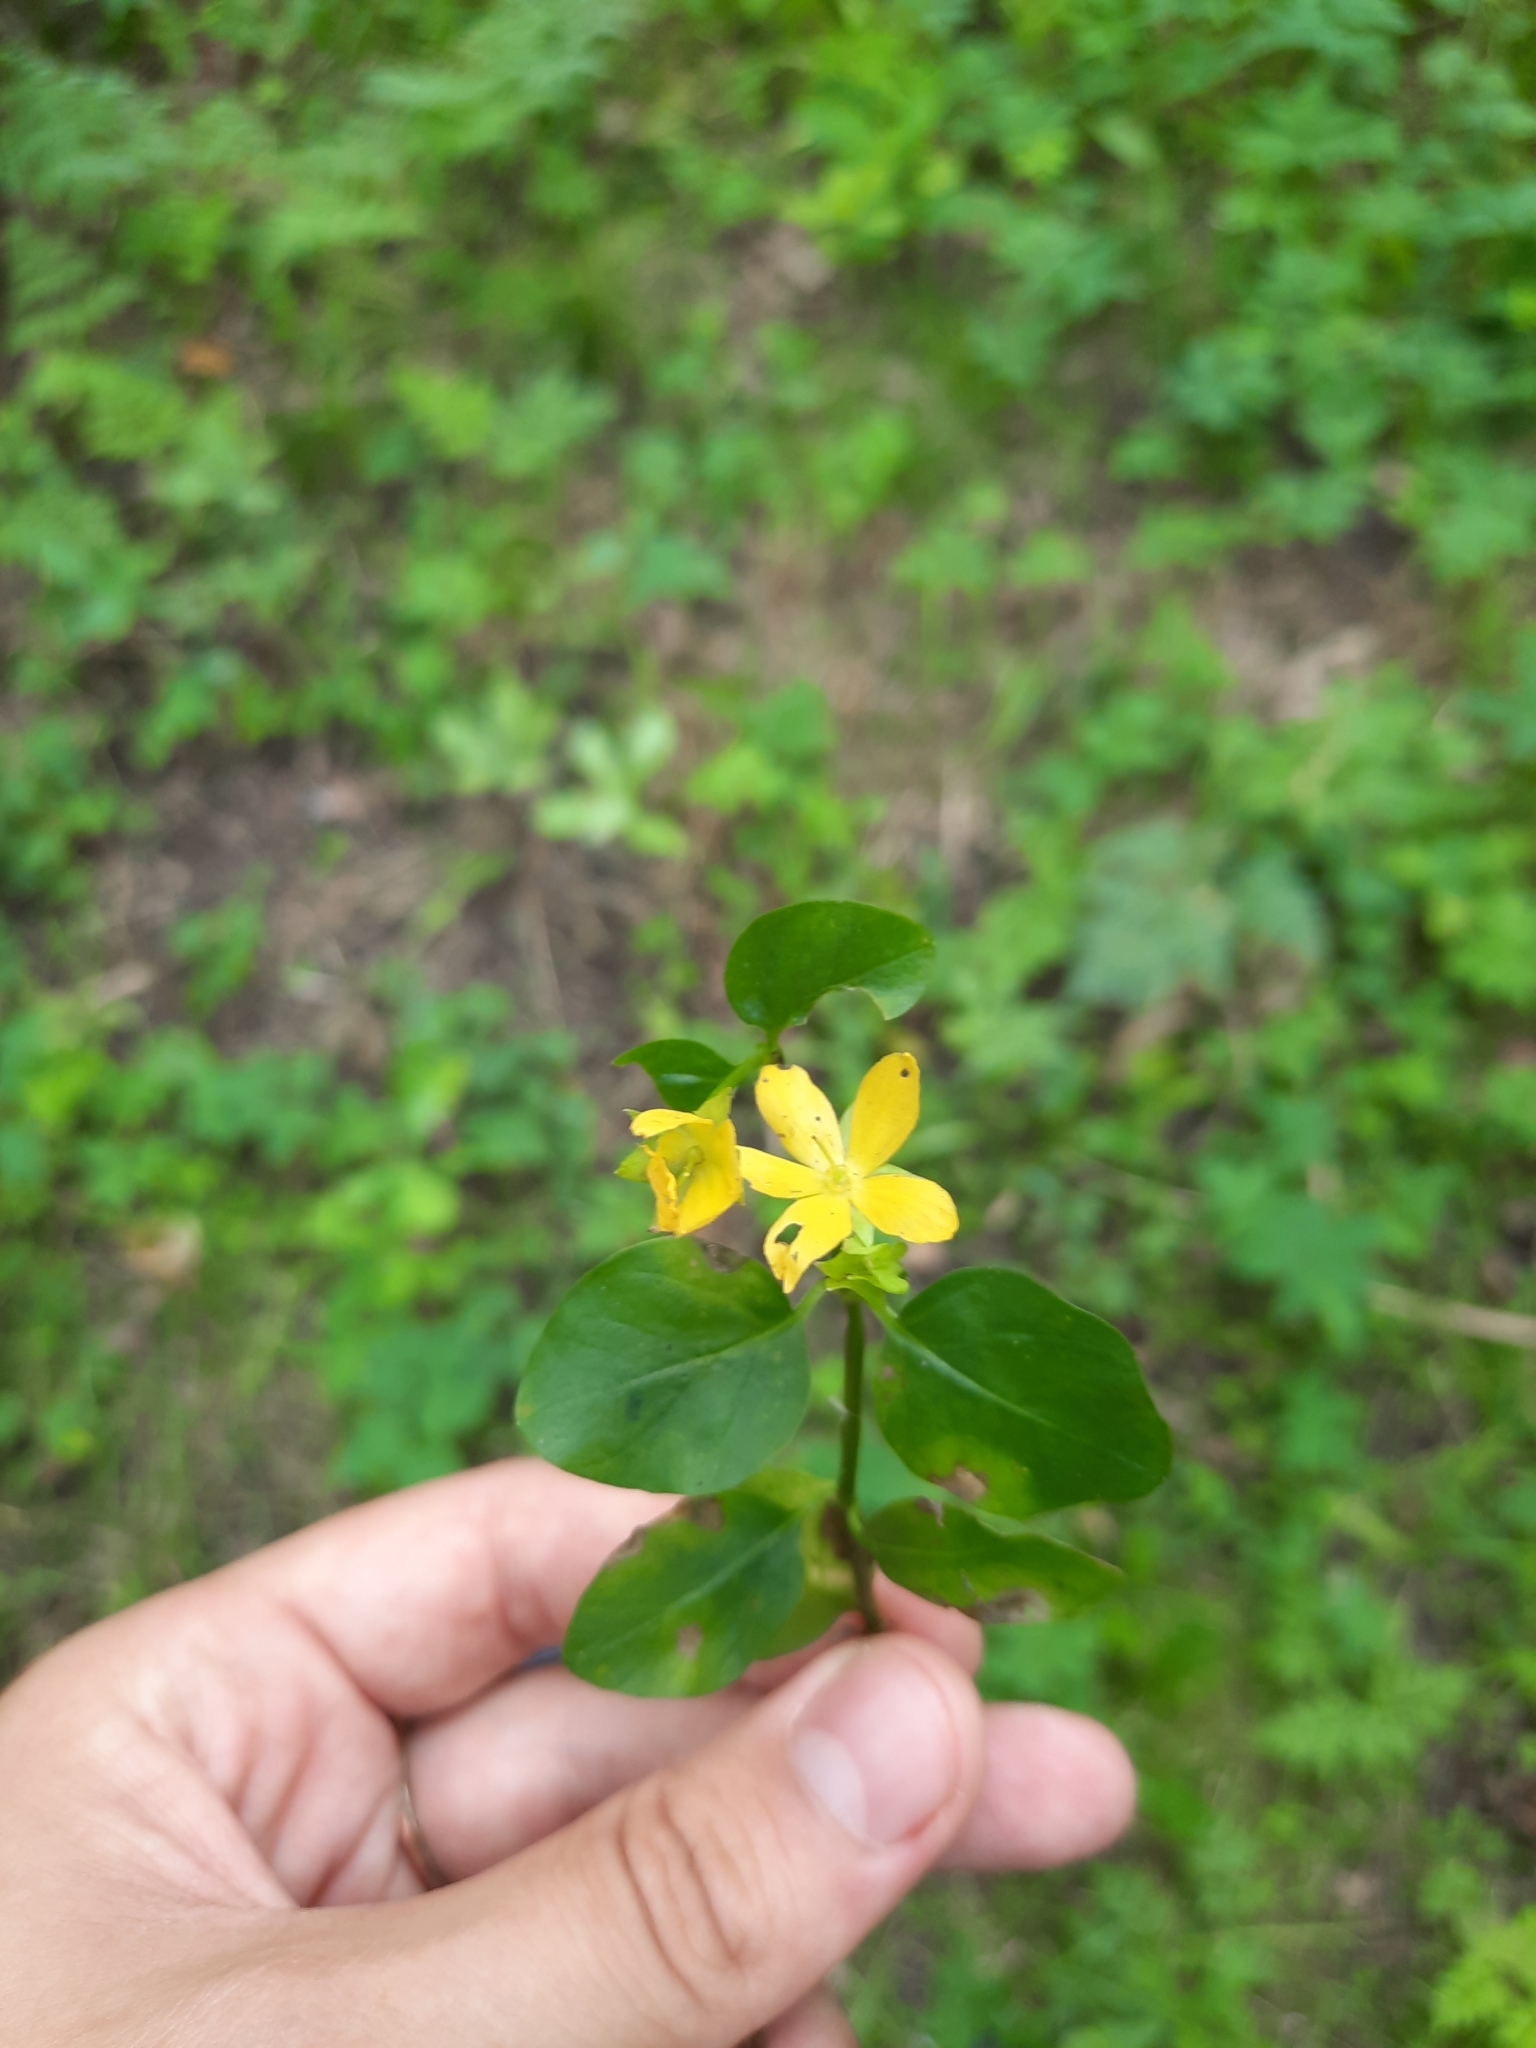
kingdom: Plantae
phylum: Tracheophyta
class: Magnoliopsida
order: Ericales
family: Primulaceae
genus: Lysimachia
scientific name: Lysimachia nummularia
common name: Moneywort
